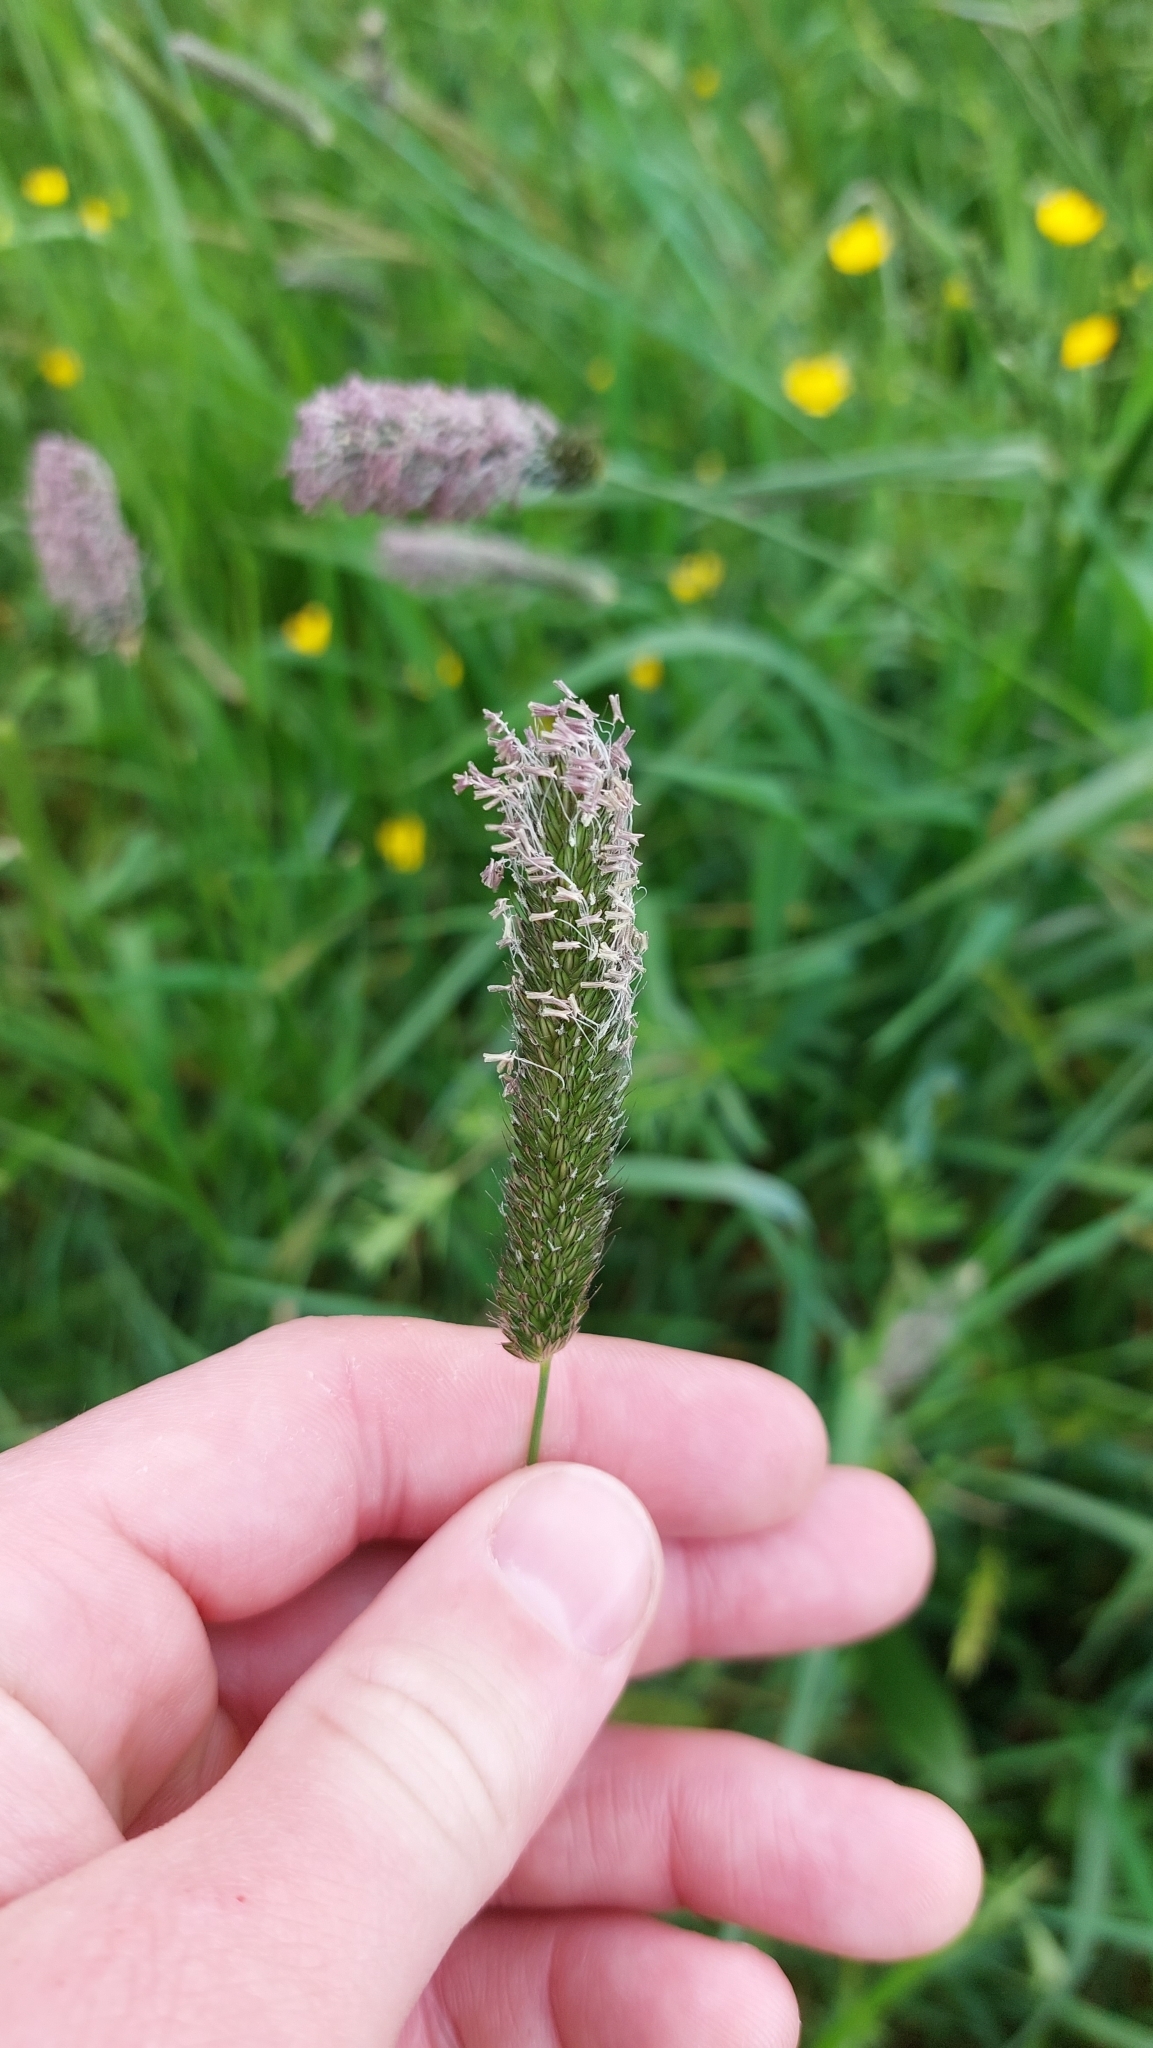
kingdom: Plantae
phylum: Tracheophyta
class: Liliopsida
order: Poales
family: Poaceae
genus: Alopecurus
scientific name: Alopecurus pratensis
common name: Meadow foxtail
